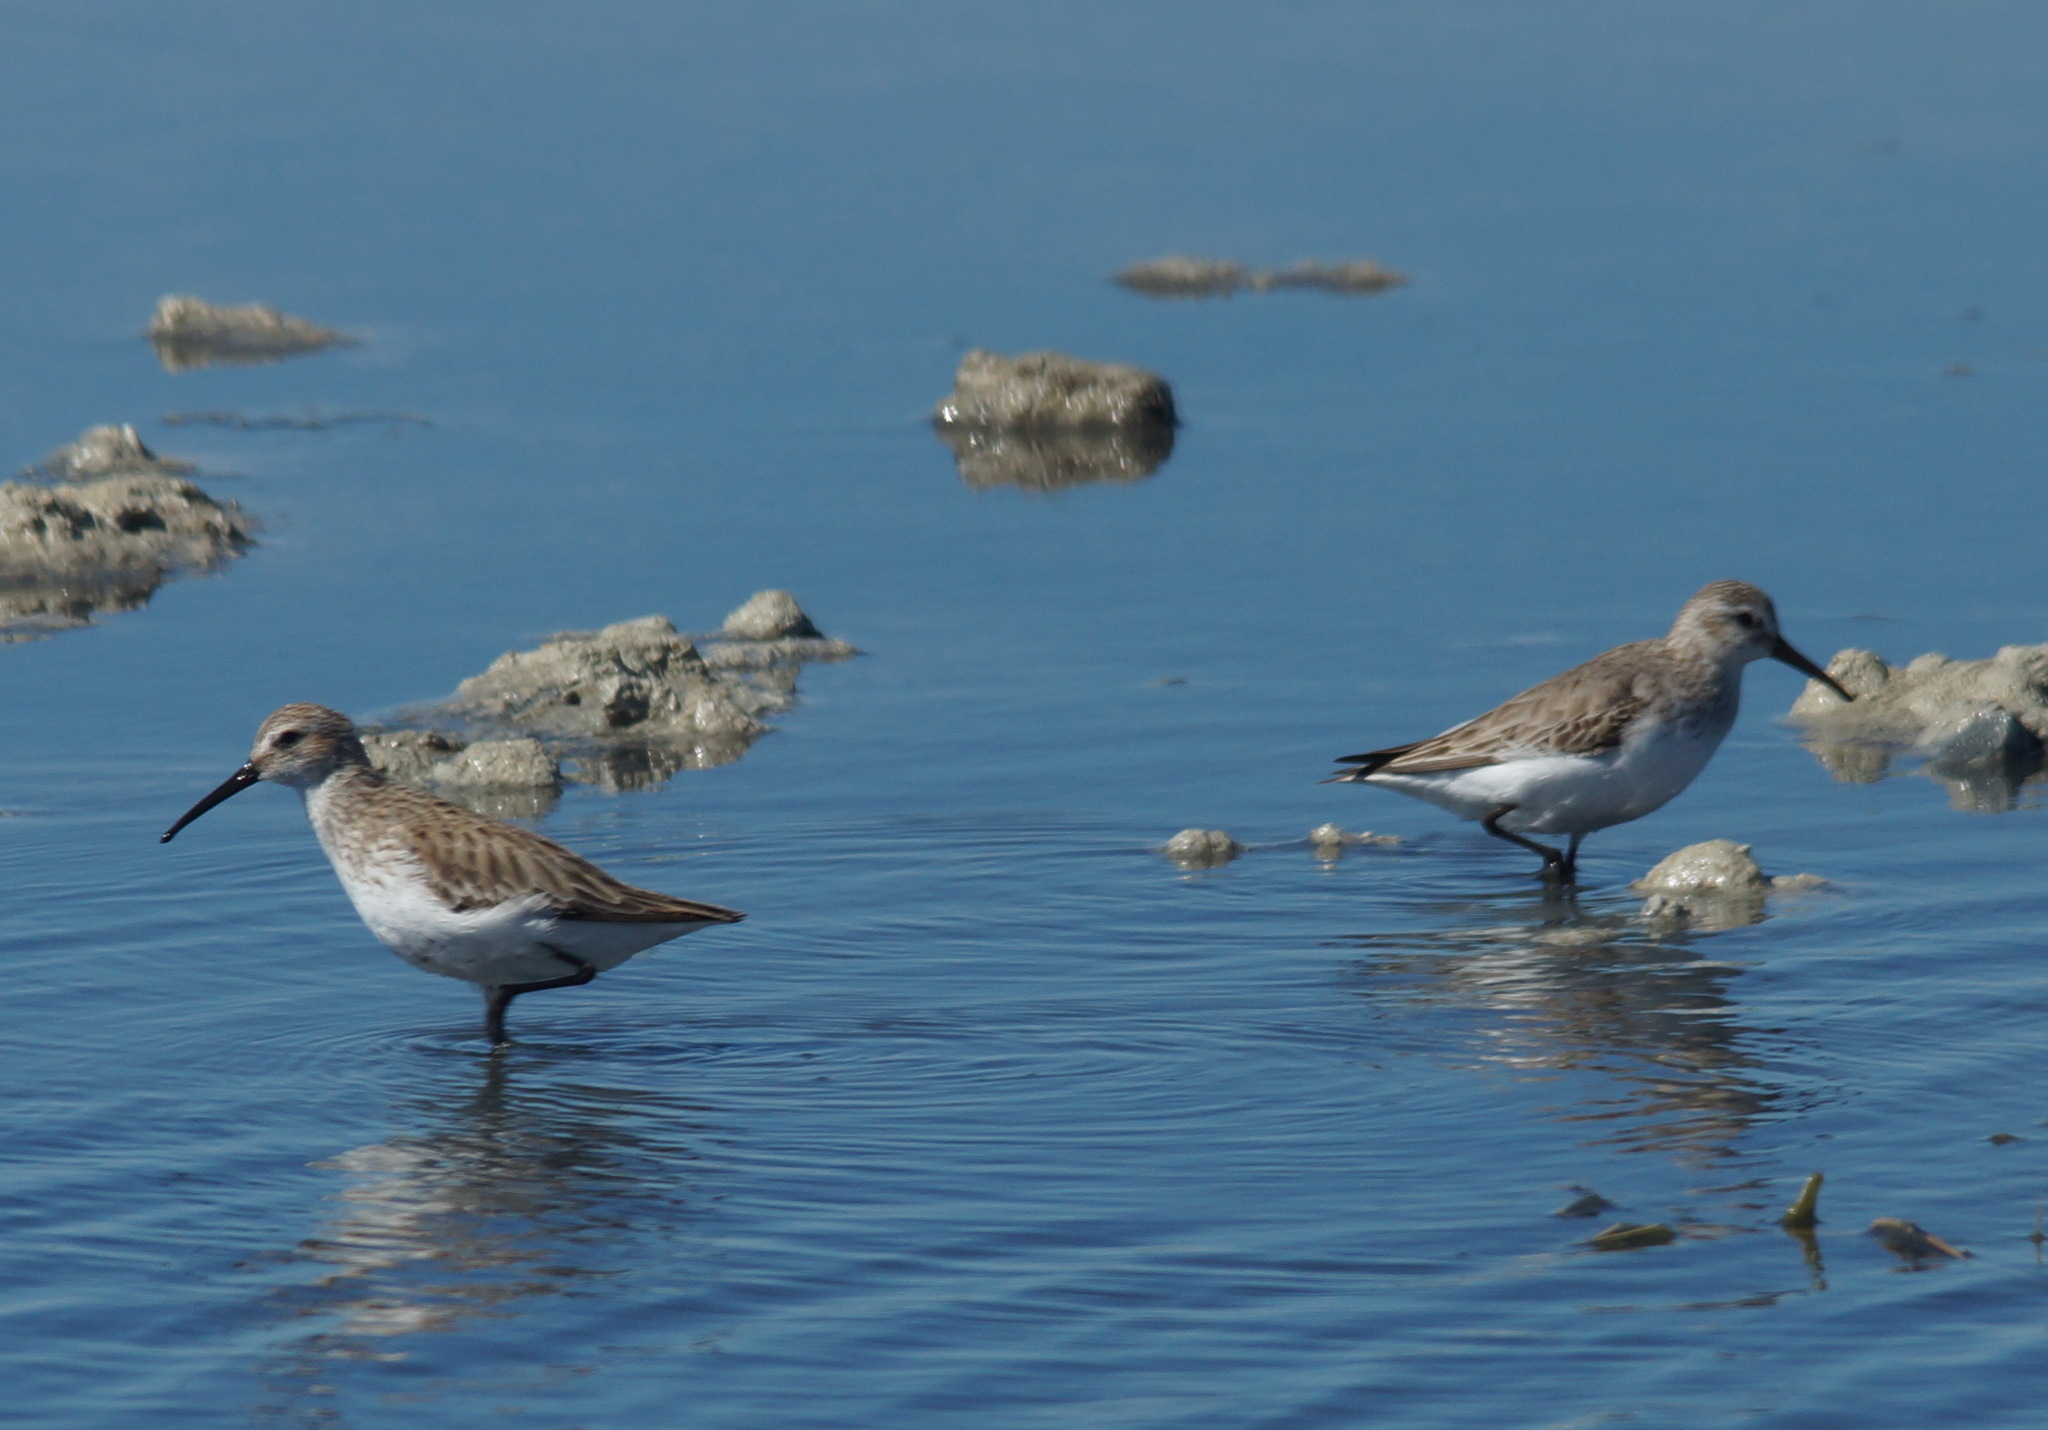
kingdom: Animalia
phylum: Chordata
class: Aves
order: Charadriiformes
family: Scolopacidae
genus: Calidris
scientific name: Calidris alpina
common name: Dunlin
